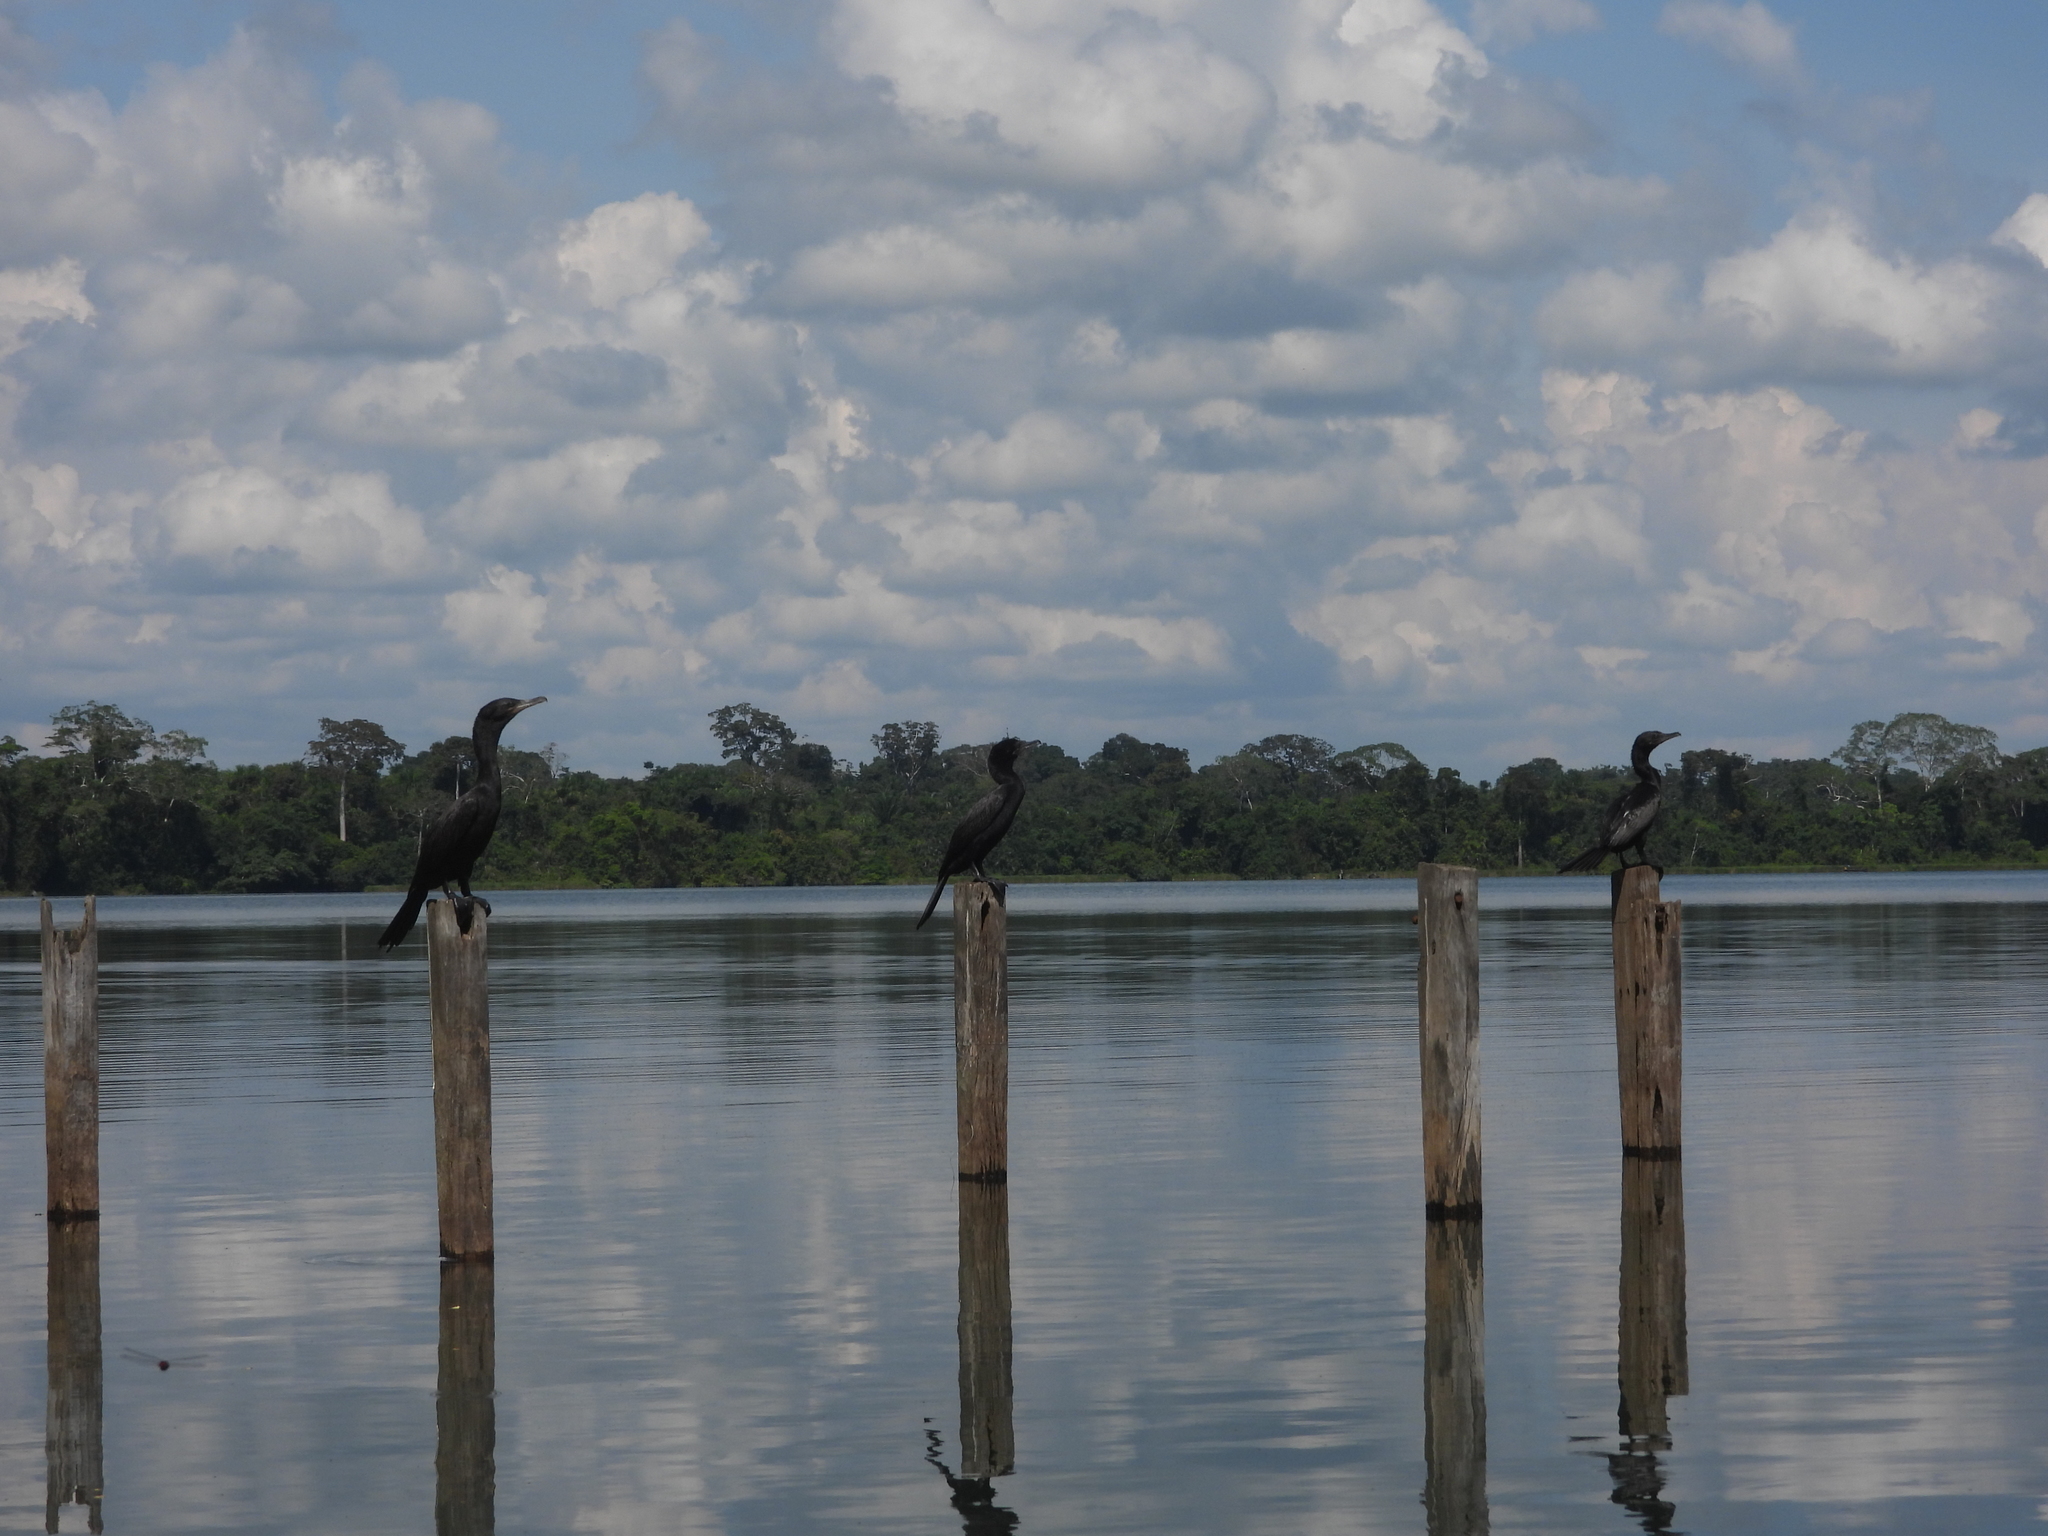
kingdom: Animalia
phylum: Chordata
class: Aves
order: Suliformes
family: Phalacrocoracidae
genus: Phalacrocorax
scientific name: Phalacrocorax brasilianus
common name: Neotropic cormorant
